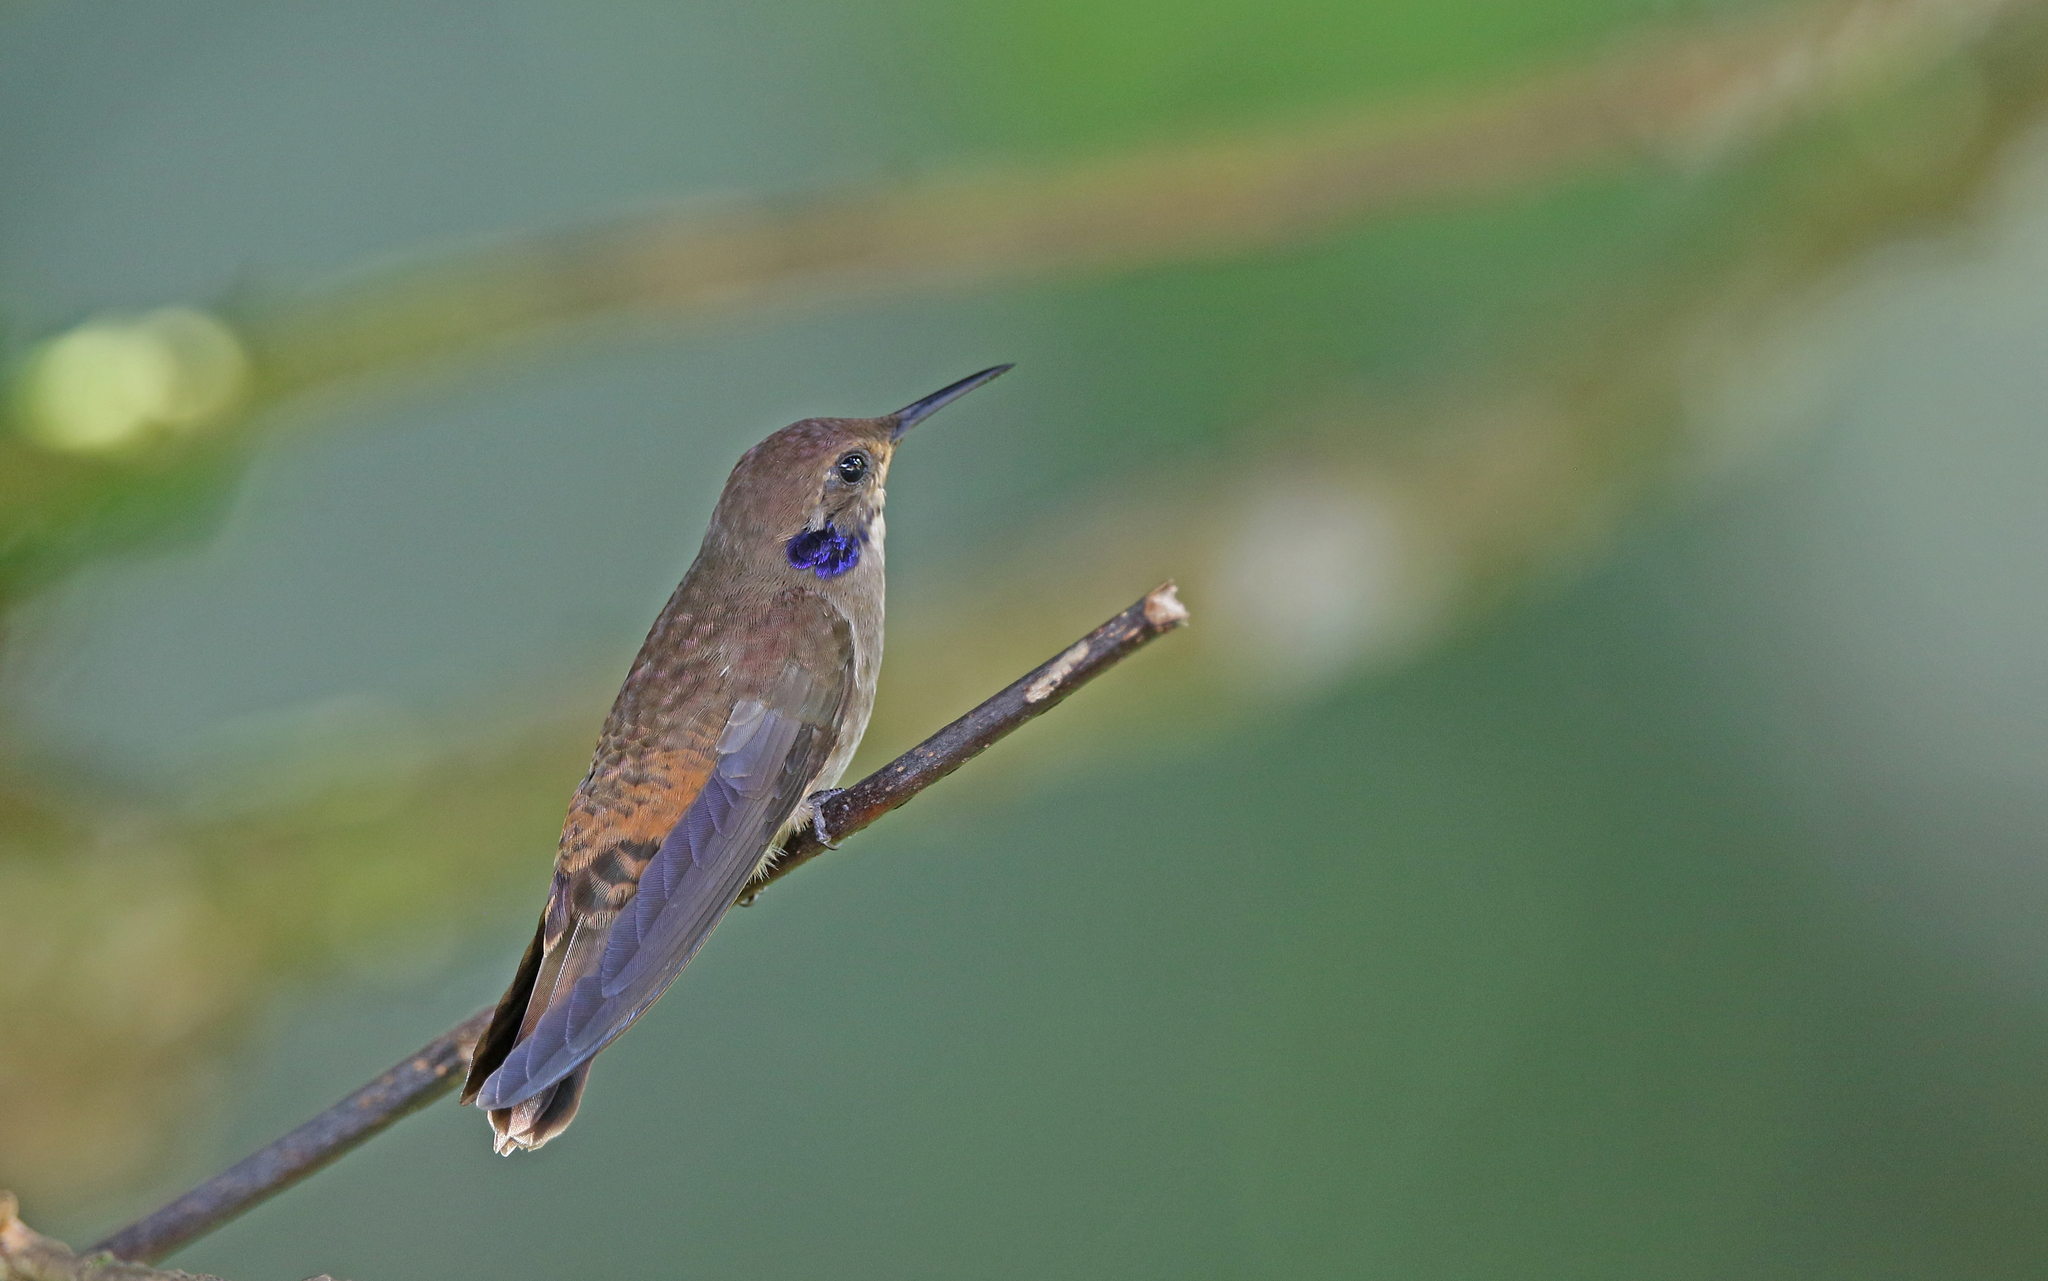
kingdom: Animalia
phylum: Chordata
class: Aves
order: Apodiformes
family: Trochilidae
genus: Colibri
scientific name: Colibri delphinae
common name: Brown violetear
